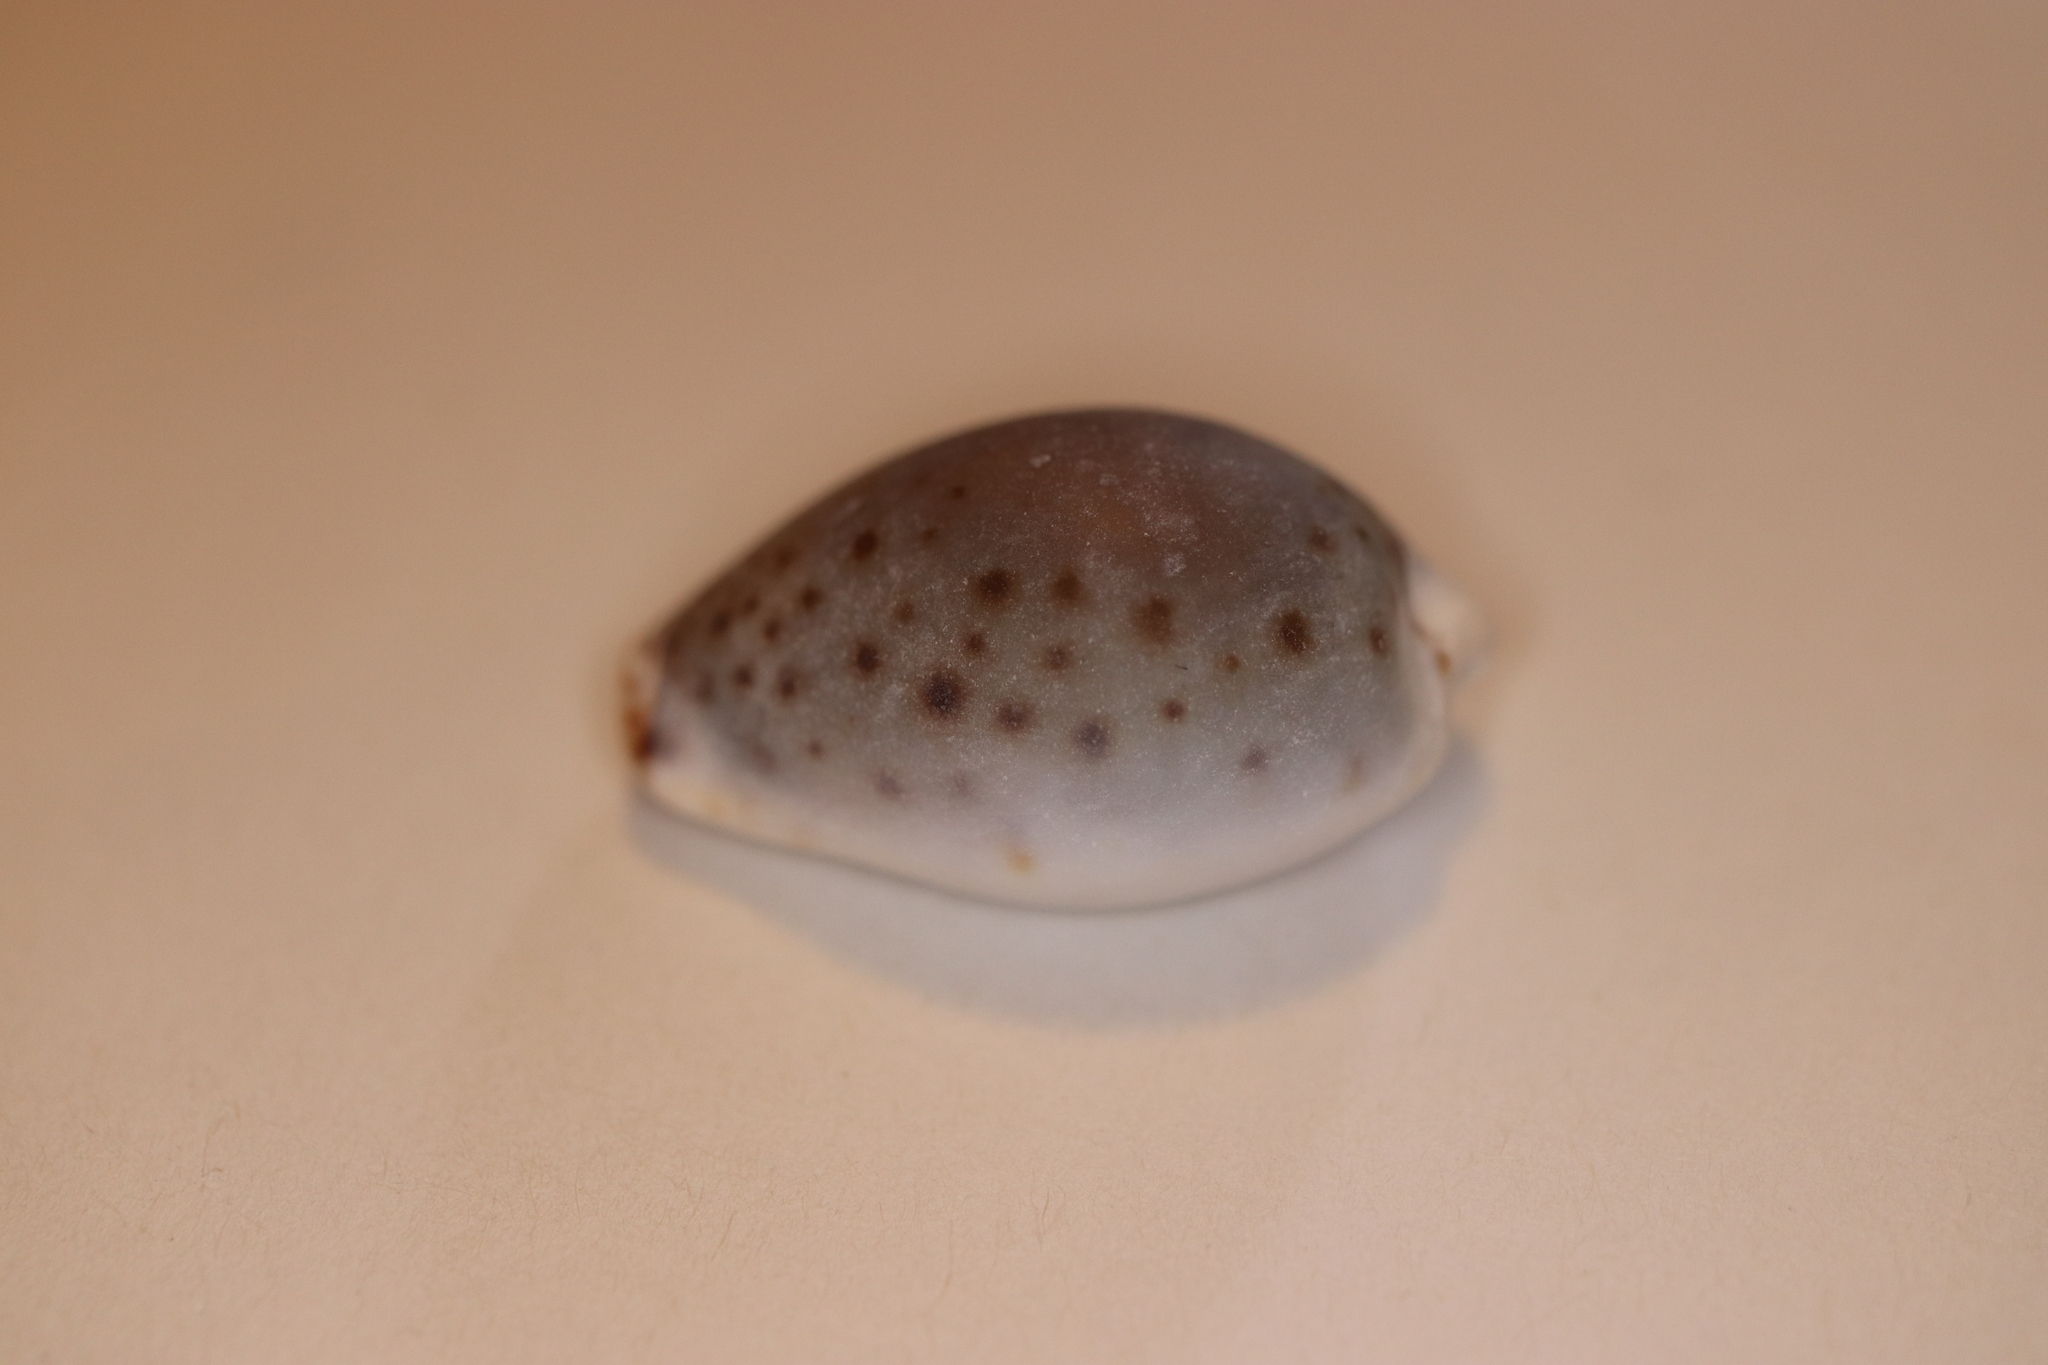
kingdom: Animalia
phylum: Mollusca
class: Gastropoda
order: Littorinimorpha
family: Cypraeidae
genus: Naria
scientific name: Naria boivinii
